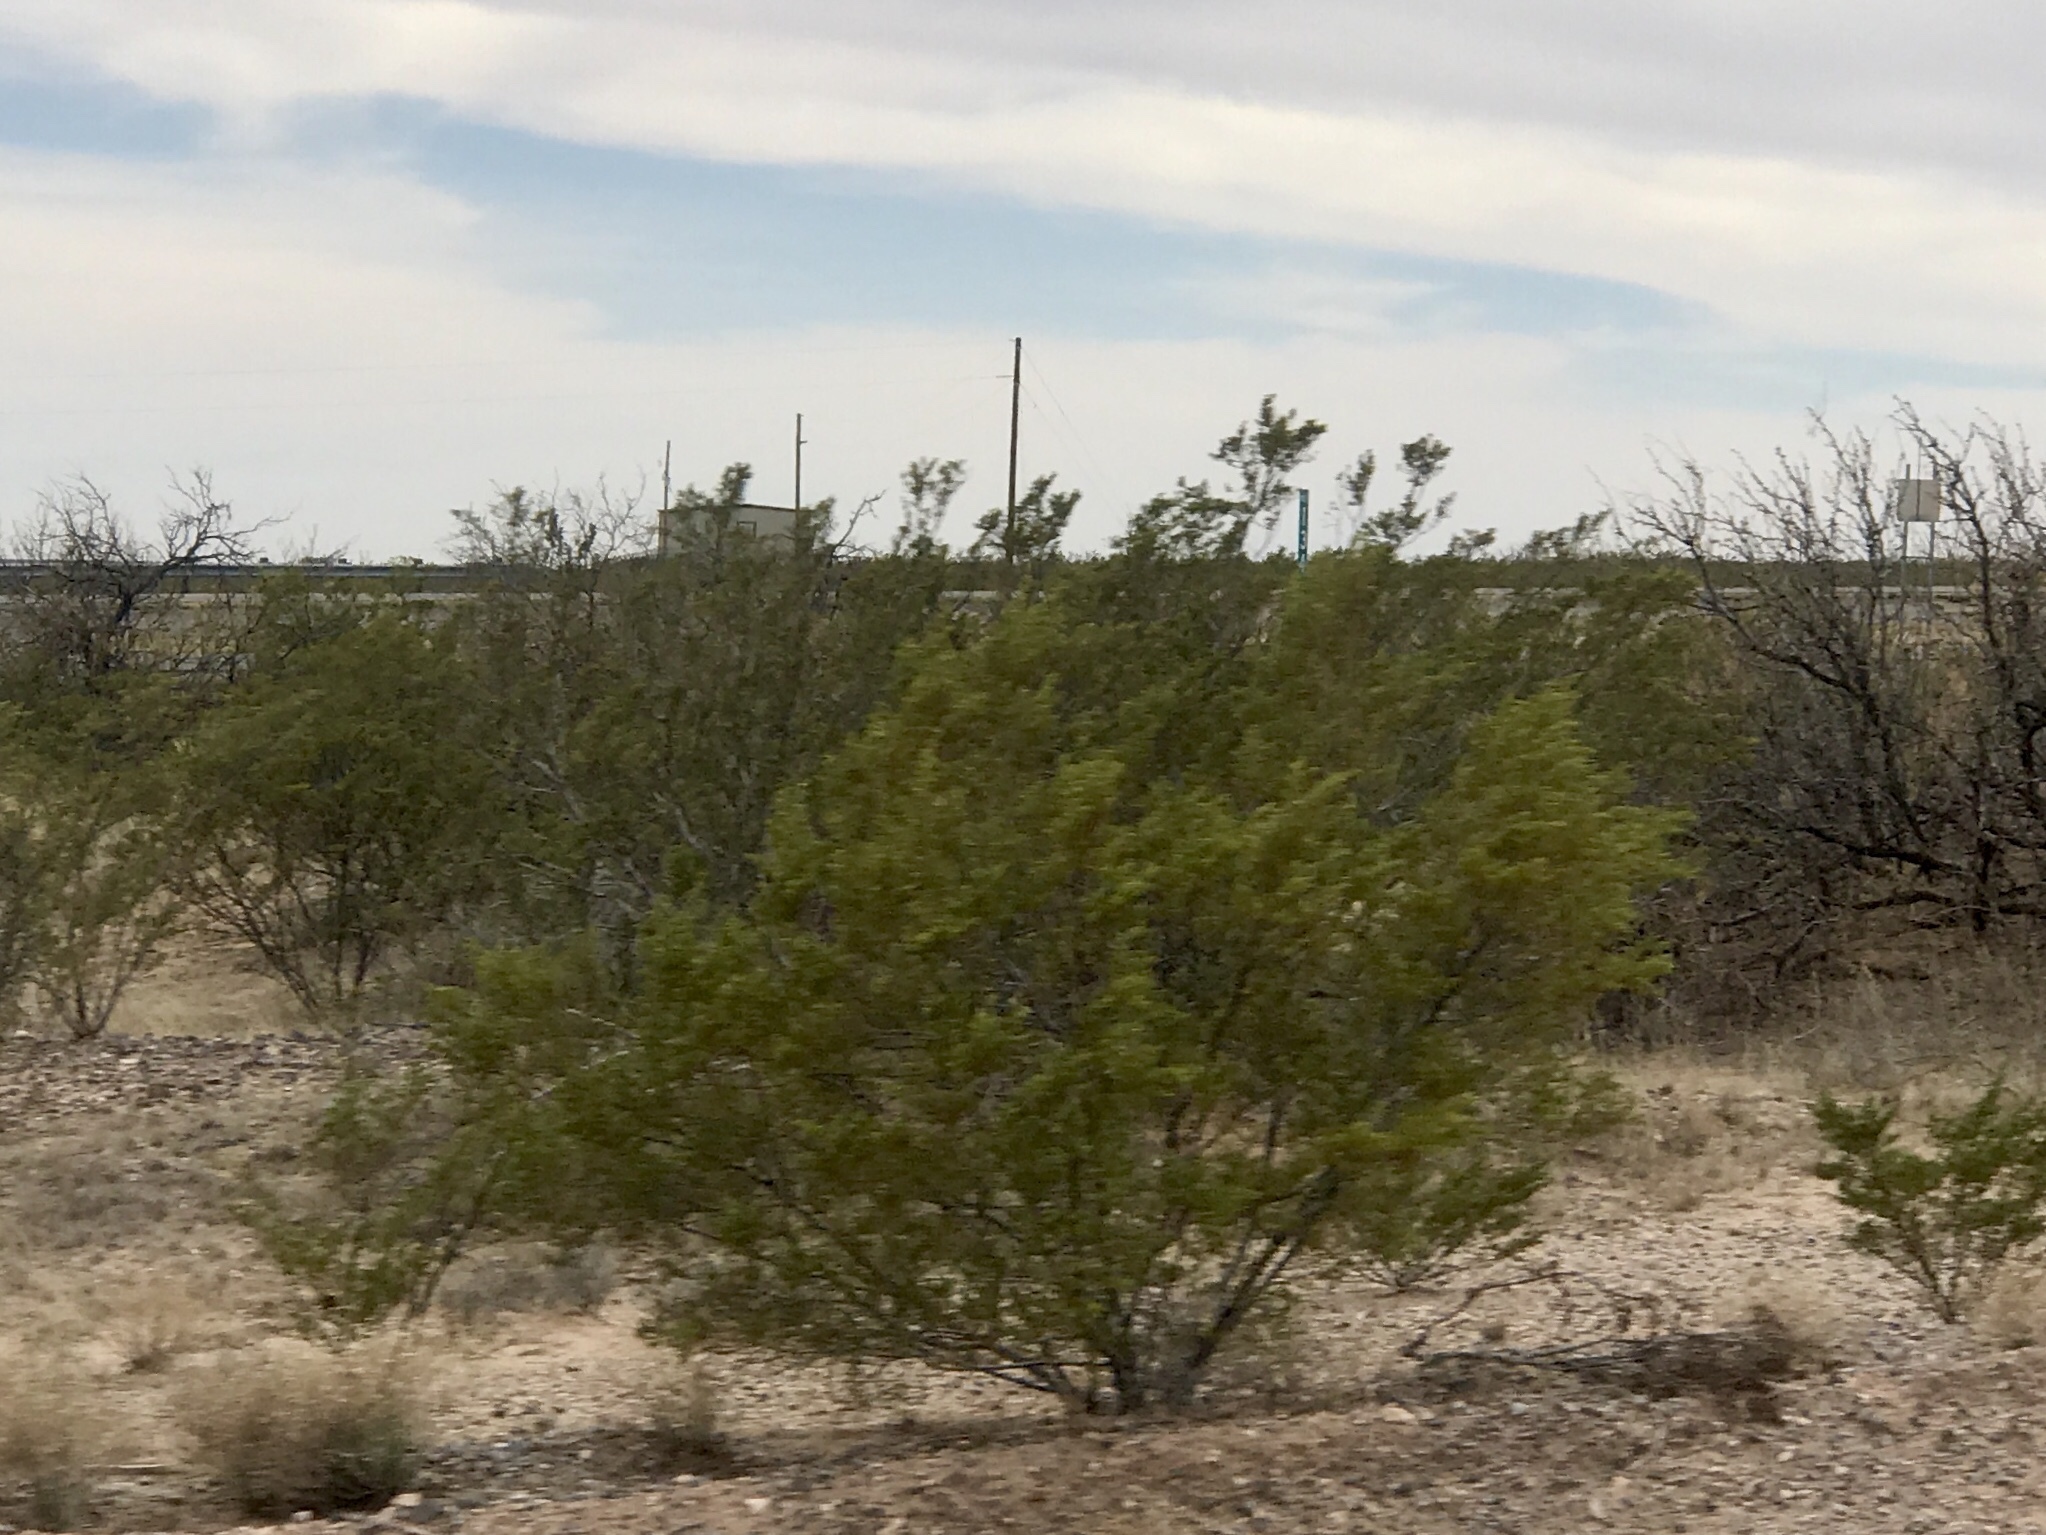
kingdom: Plantae
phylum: Tracheophyta
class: Magnoliopsida
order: Zygophyllales
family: Zygophyllaceae
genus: Larrea
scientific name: Larrea tridentata
